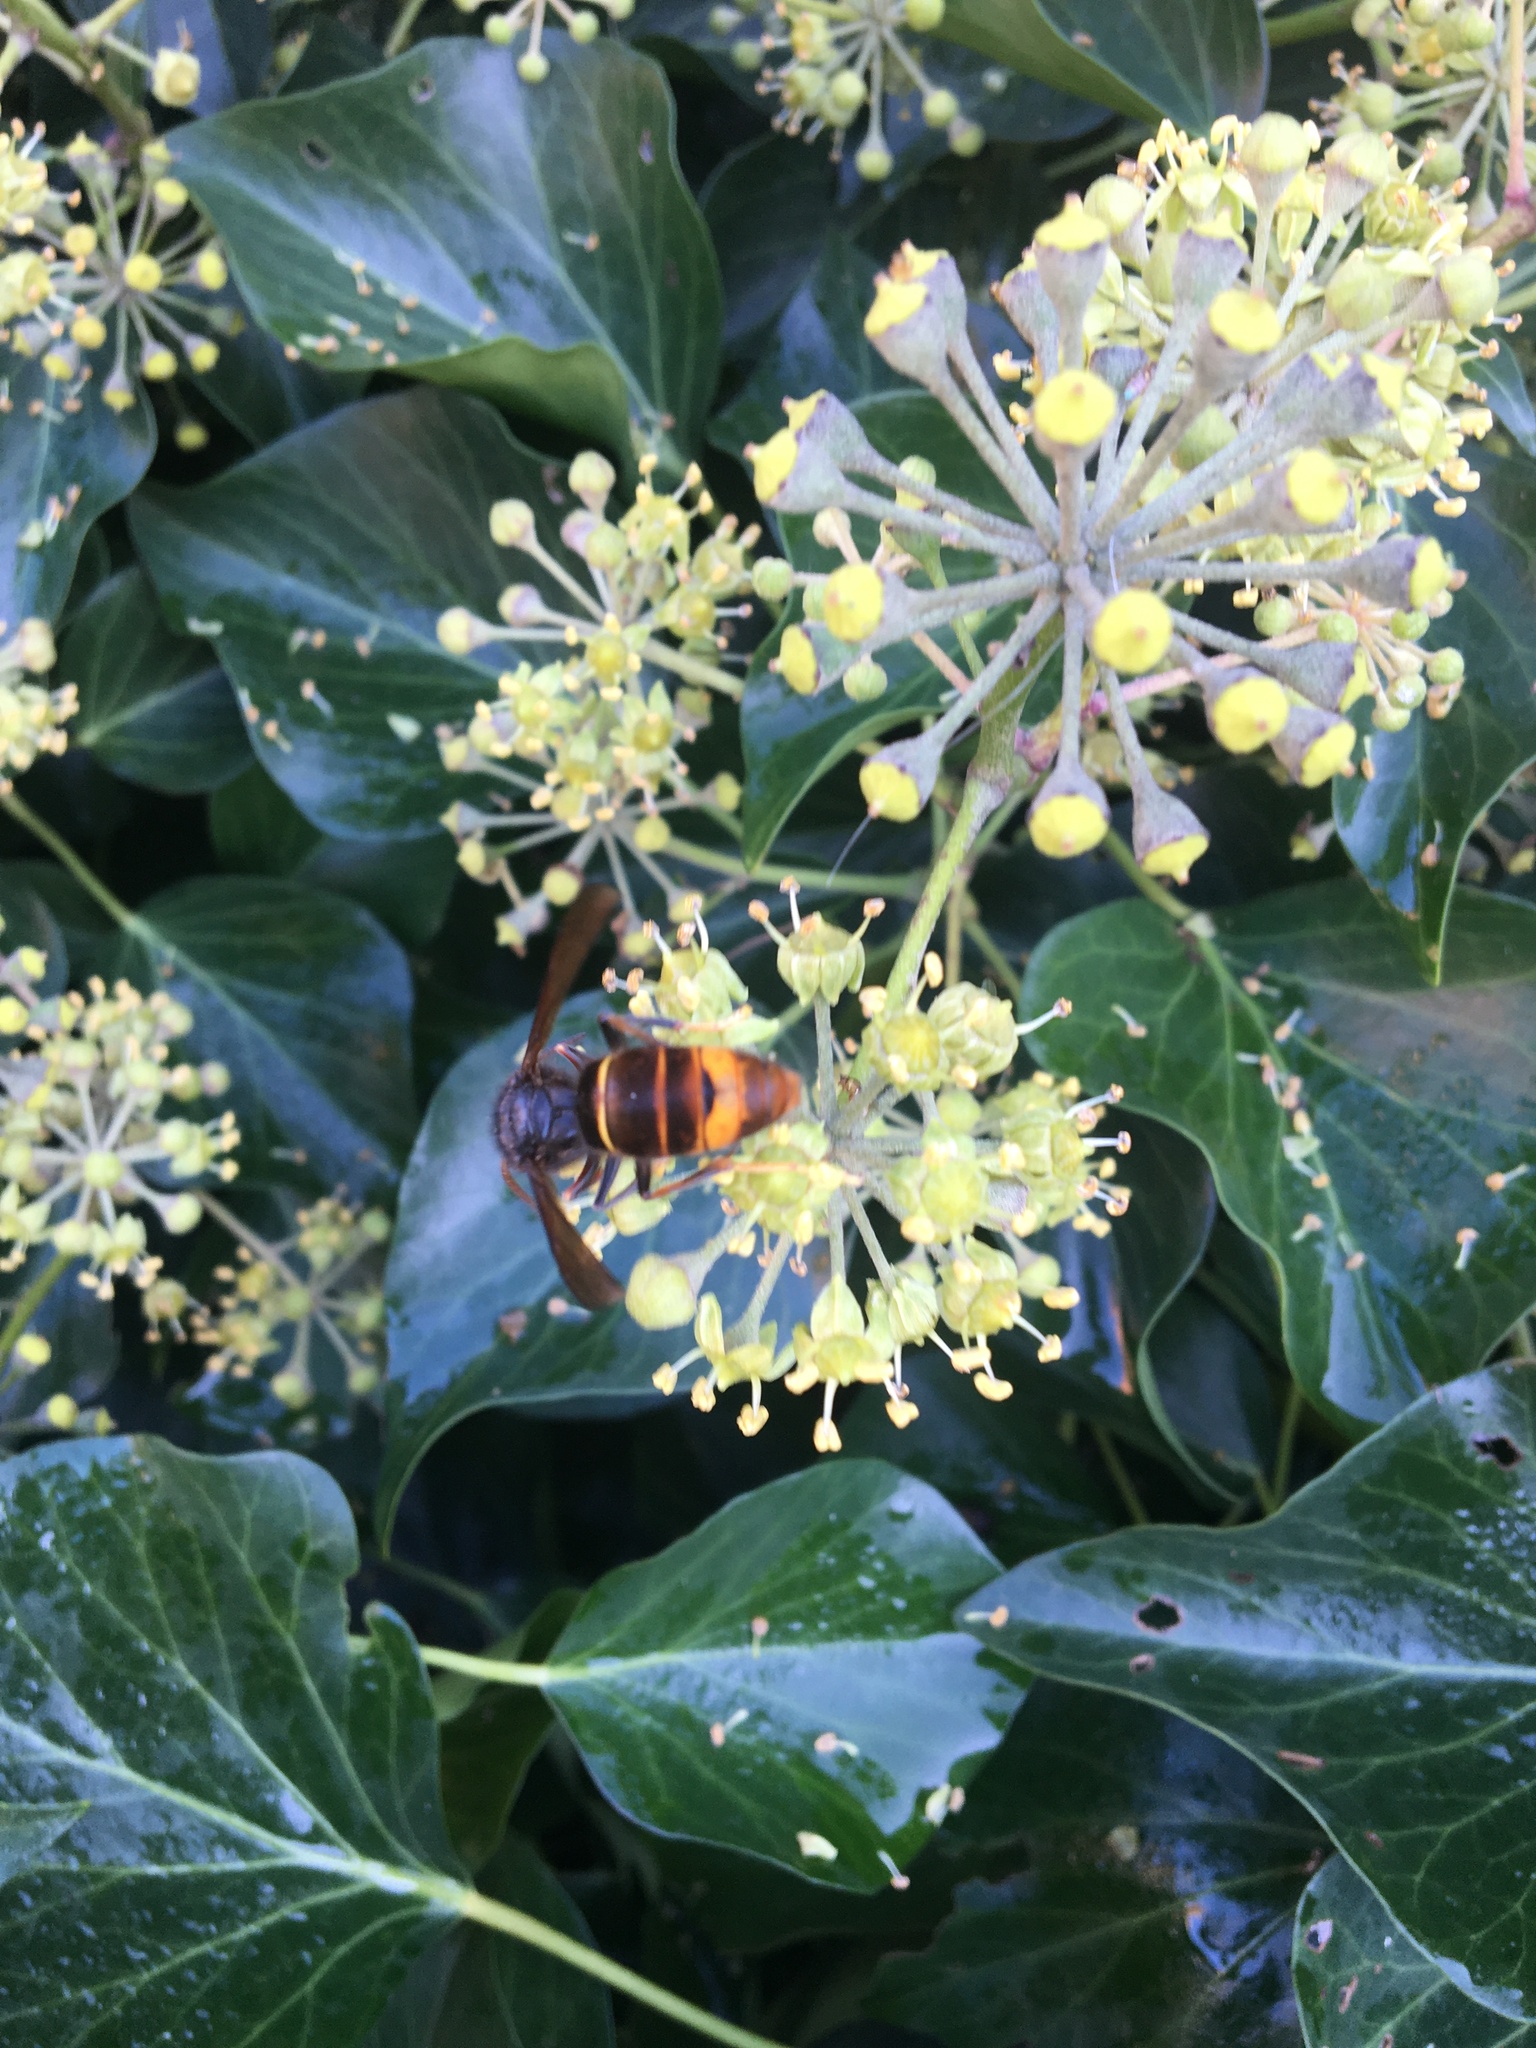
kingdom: Animalia
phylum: Arthropoda
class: Insecta
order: Hymenoptera
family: Vespidae
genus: Vespa
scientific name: Vespa velutina
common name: Asian hornet
